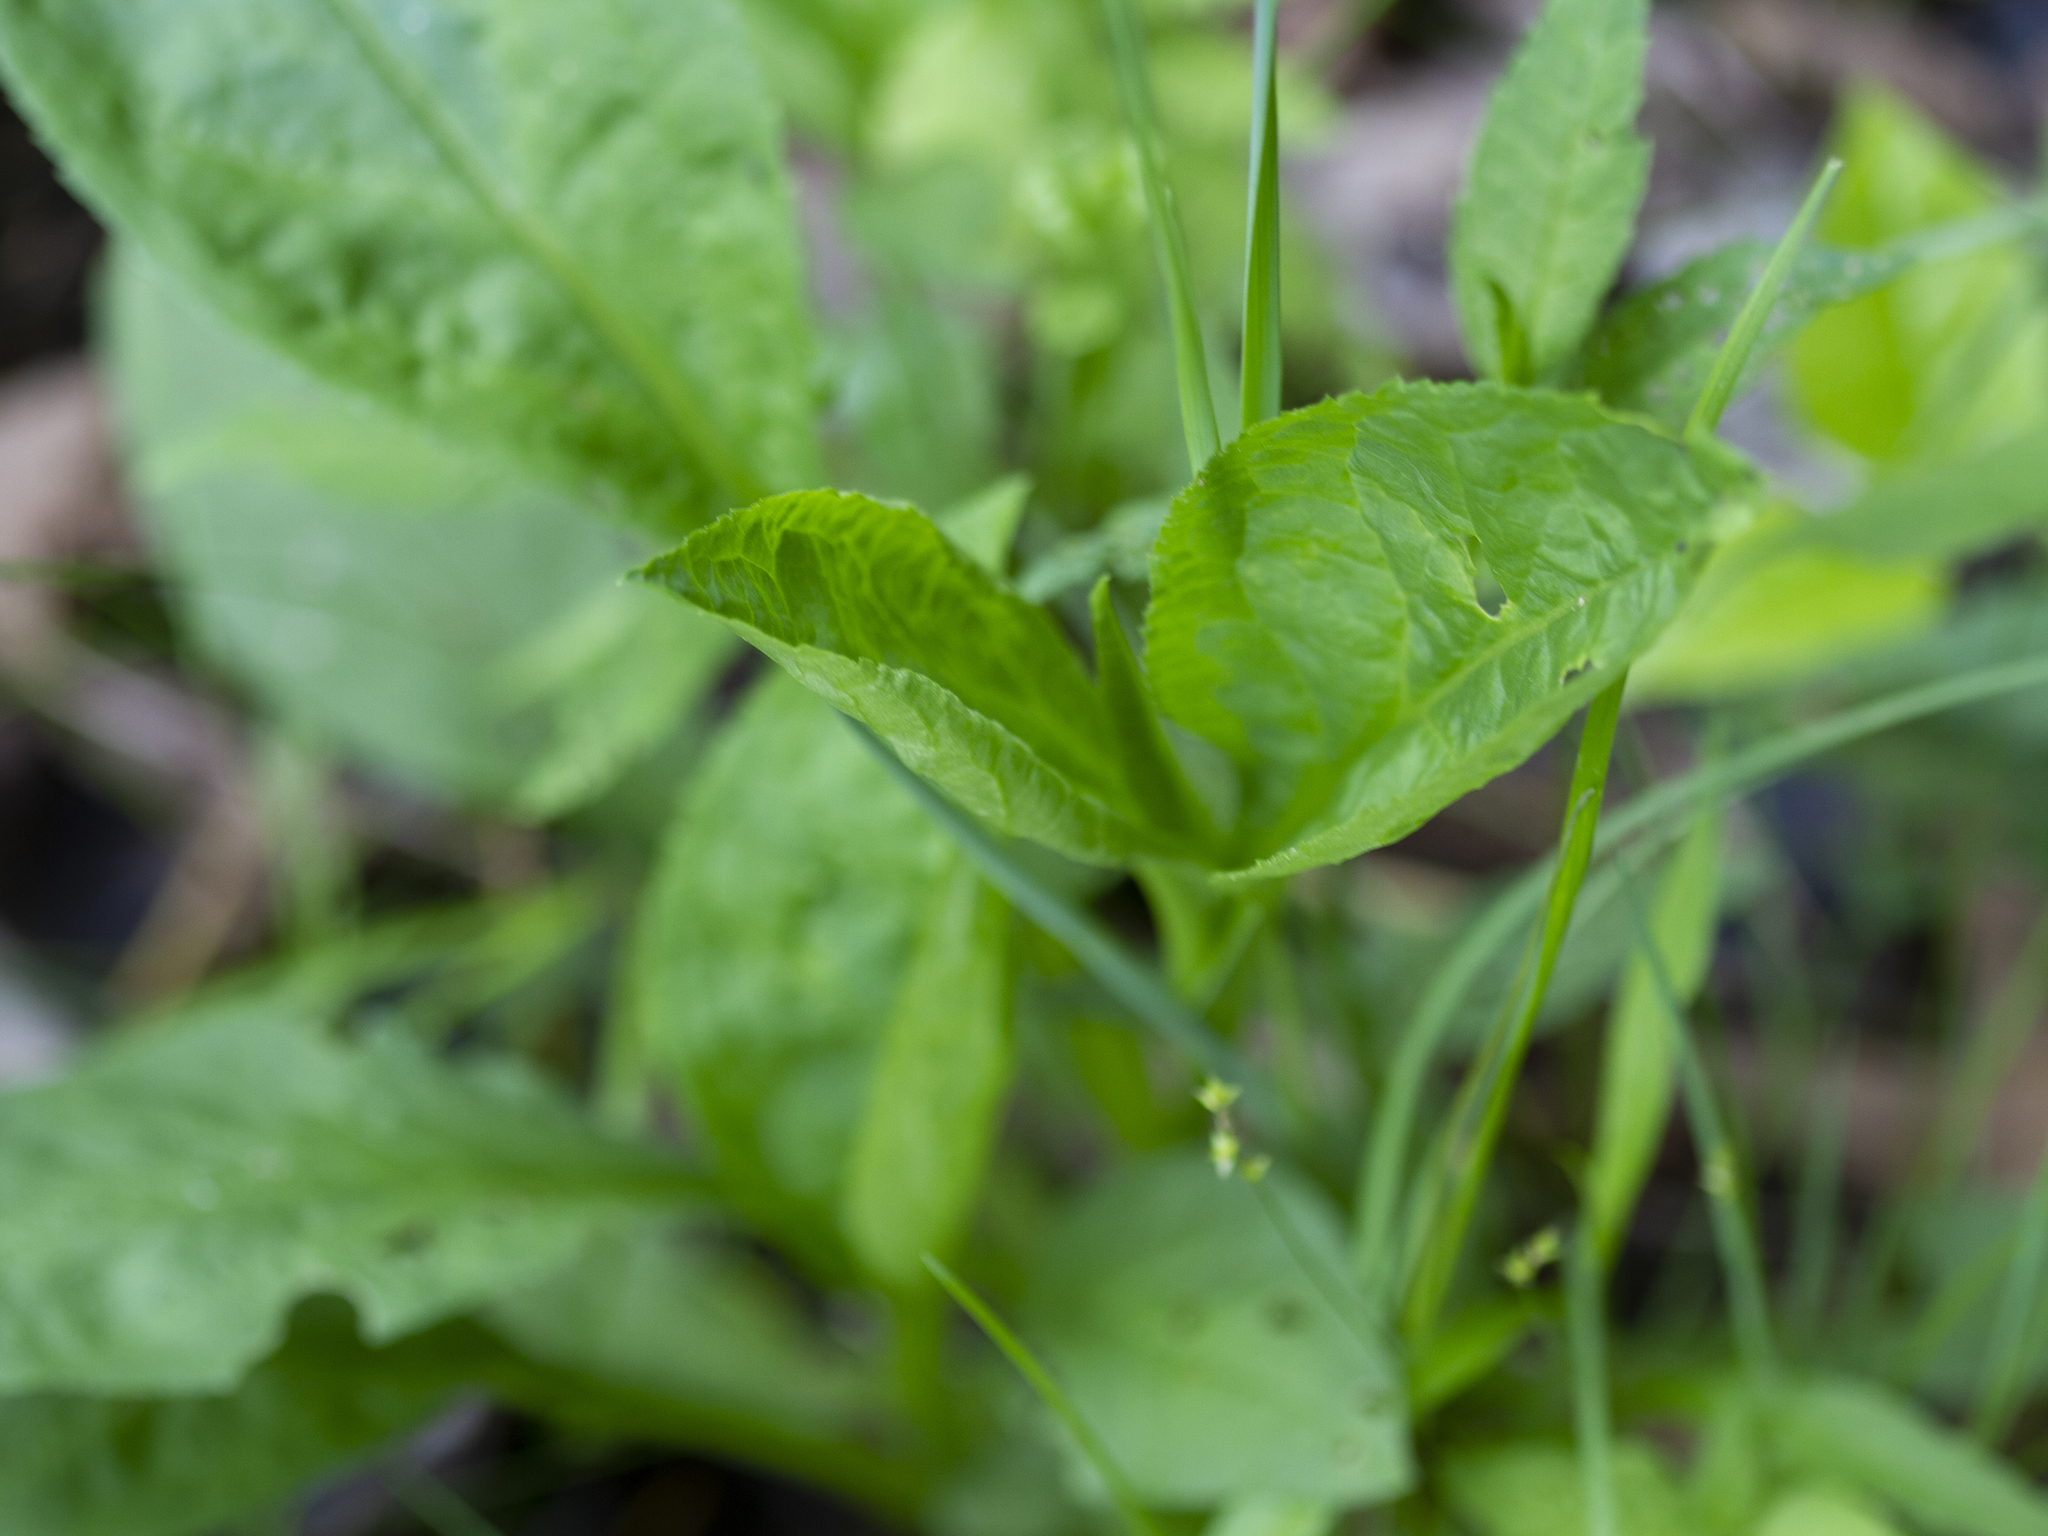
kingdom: Plantae
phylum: Tracheophyta
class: Magnoliopsida
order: Asterales
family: Asteraceae
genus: Solidago
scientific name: Solidago patula
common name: Rough-leaf goldenrod
